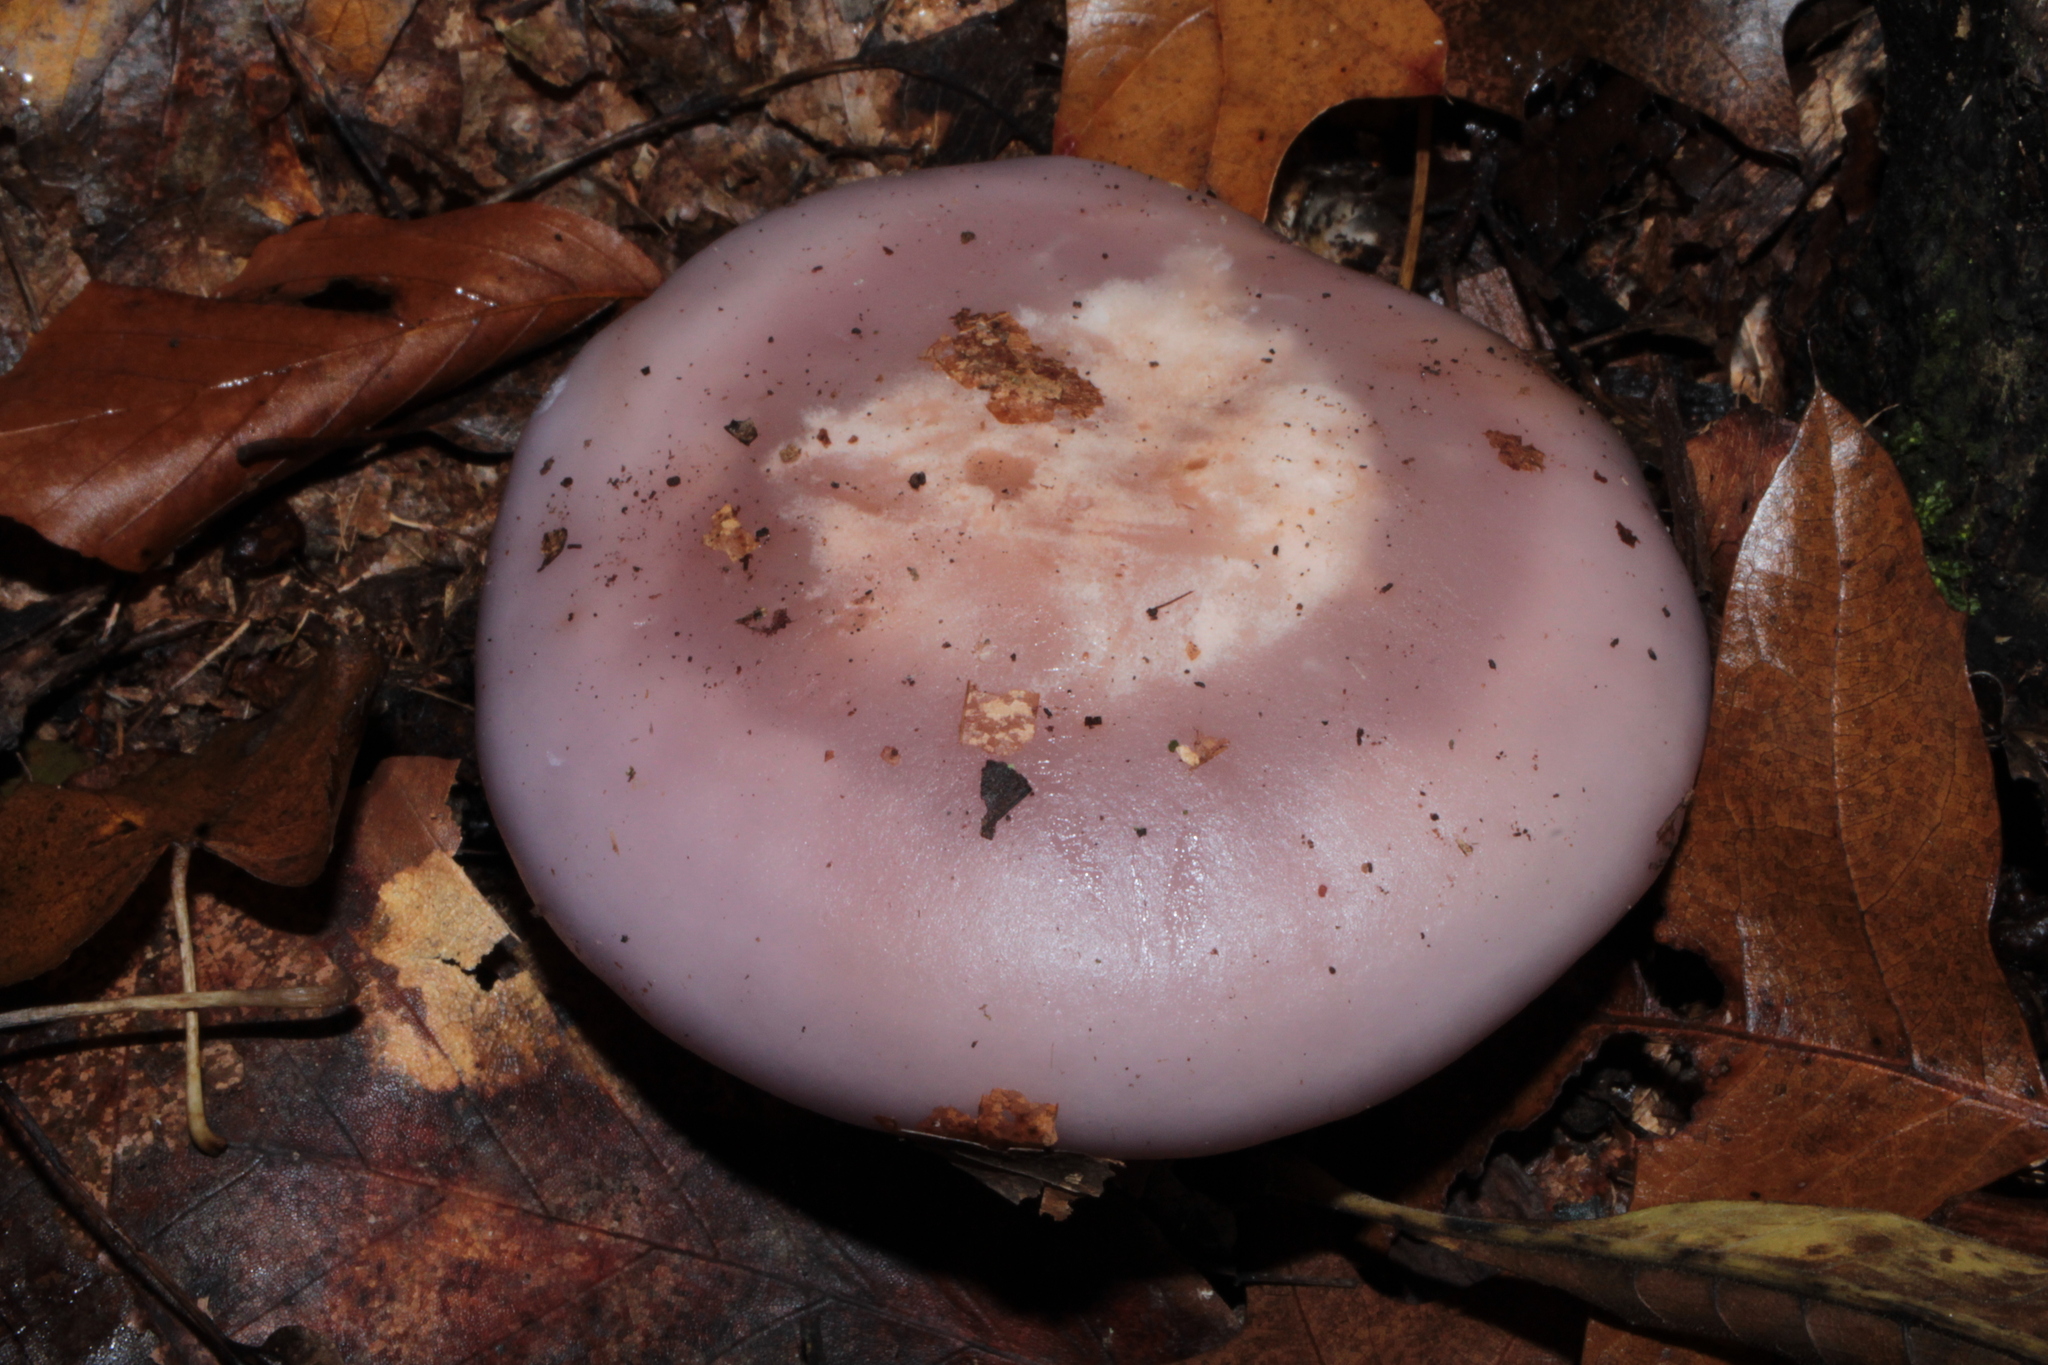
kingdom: Fungi
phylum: Basidiomycota
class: Agaricomycetes
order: Agaricales
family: Tricholomataceae
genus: Collybia
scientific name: Collybia
